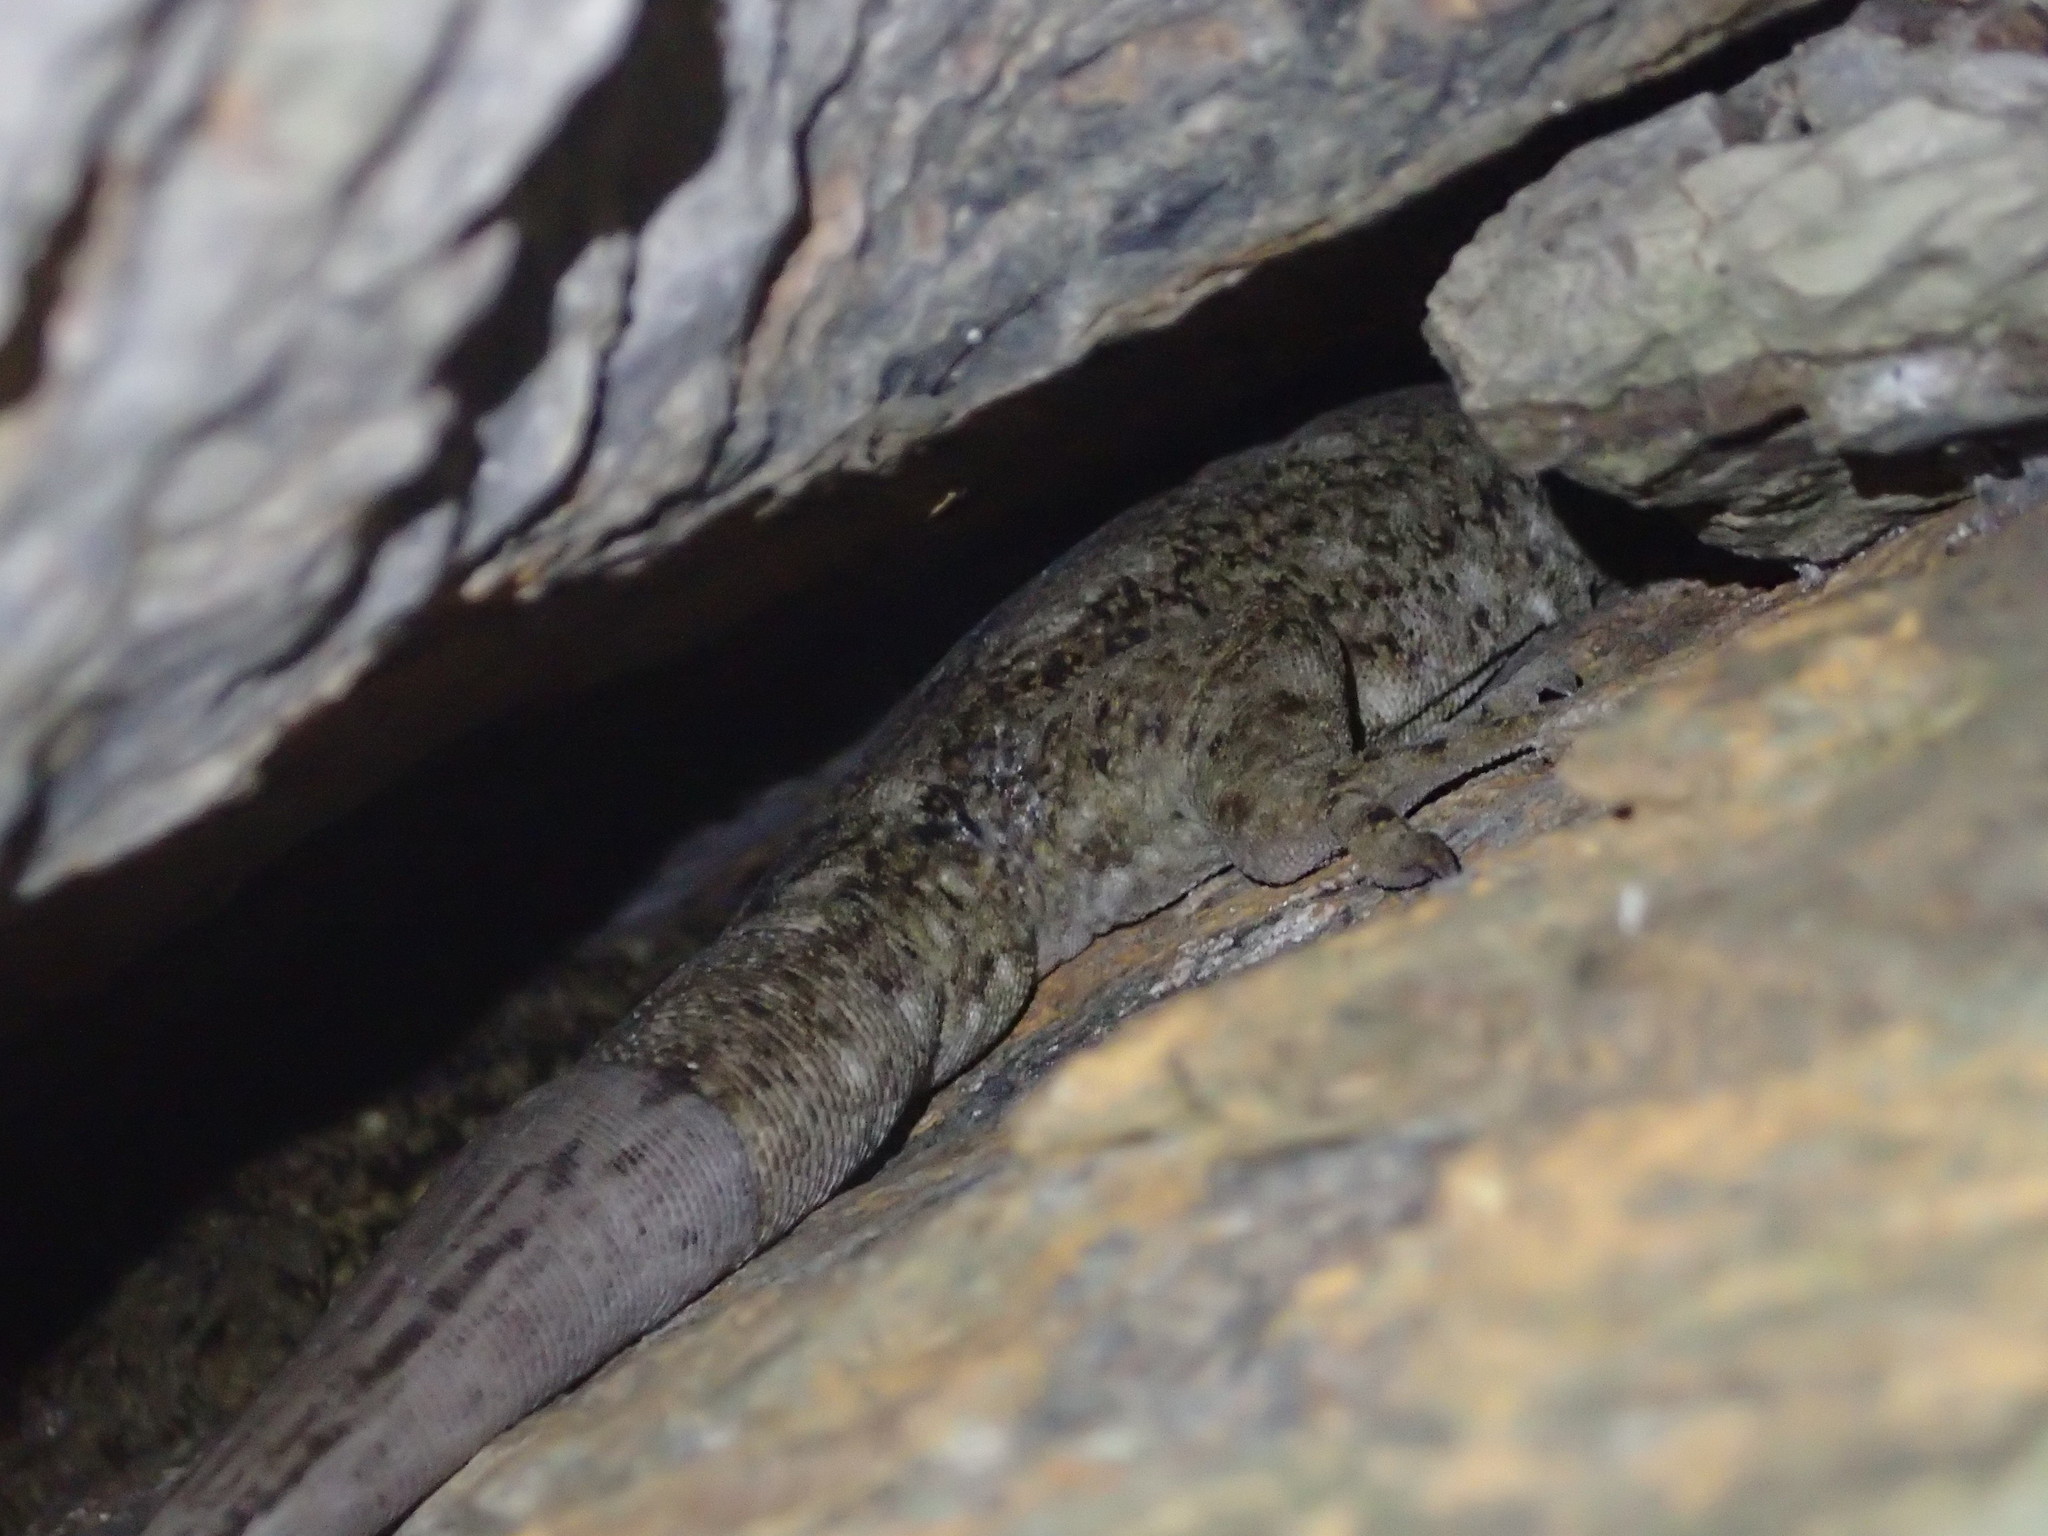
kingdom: Animalia
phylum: Chordata
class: Squamata
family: Diplodactylidae
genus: Hoplodactylus
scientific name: Hoplodactylus duvaucelii
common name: Duvaucel's gecko
